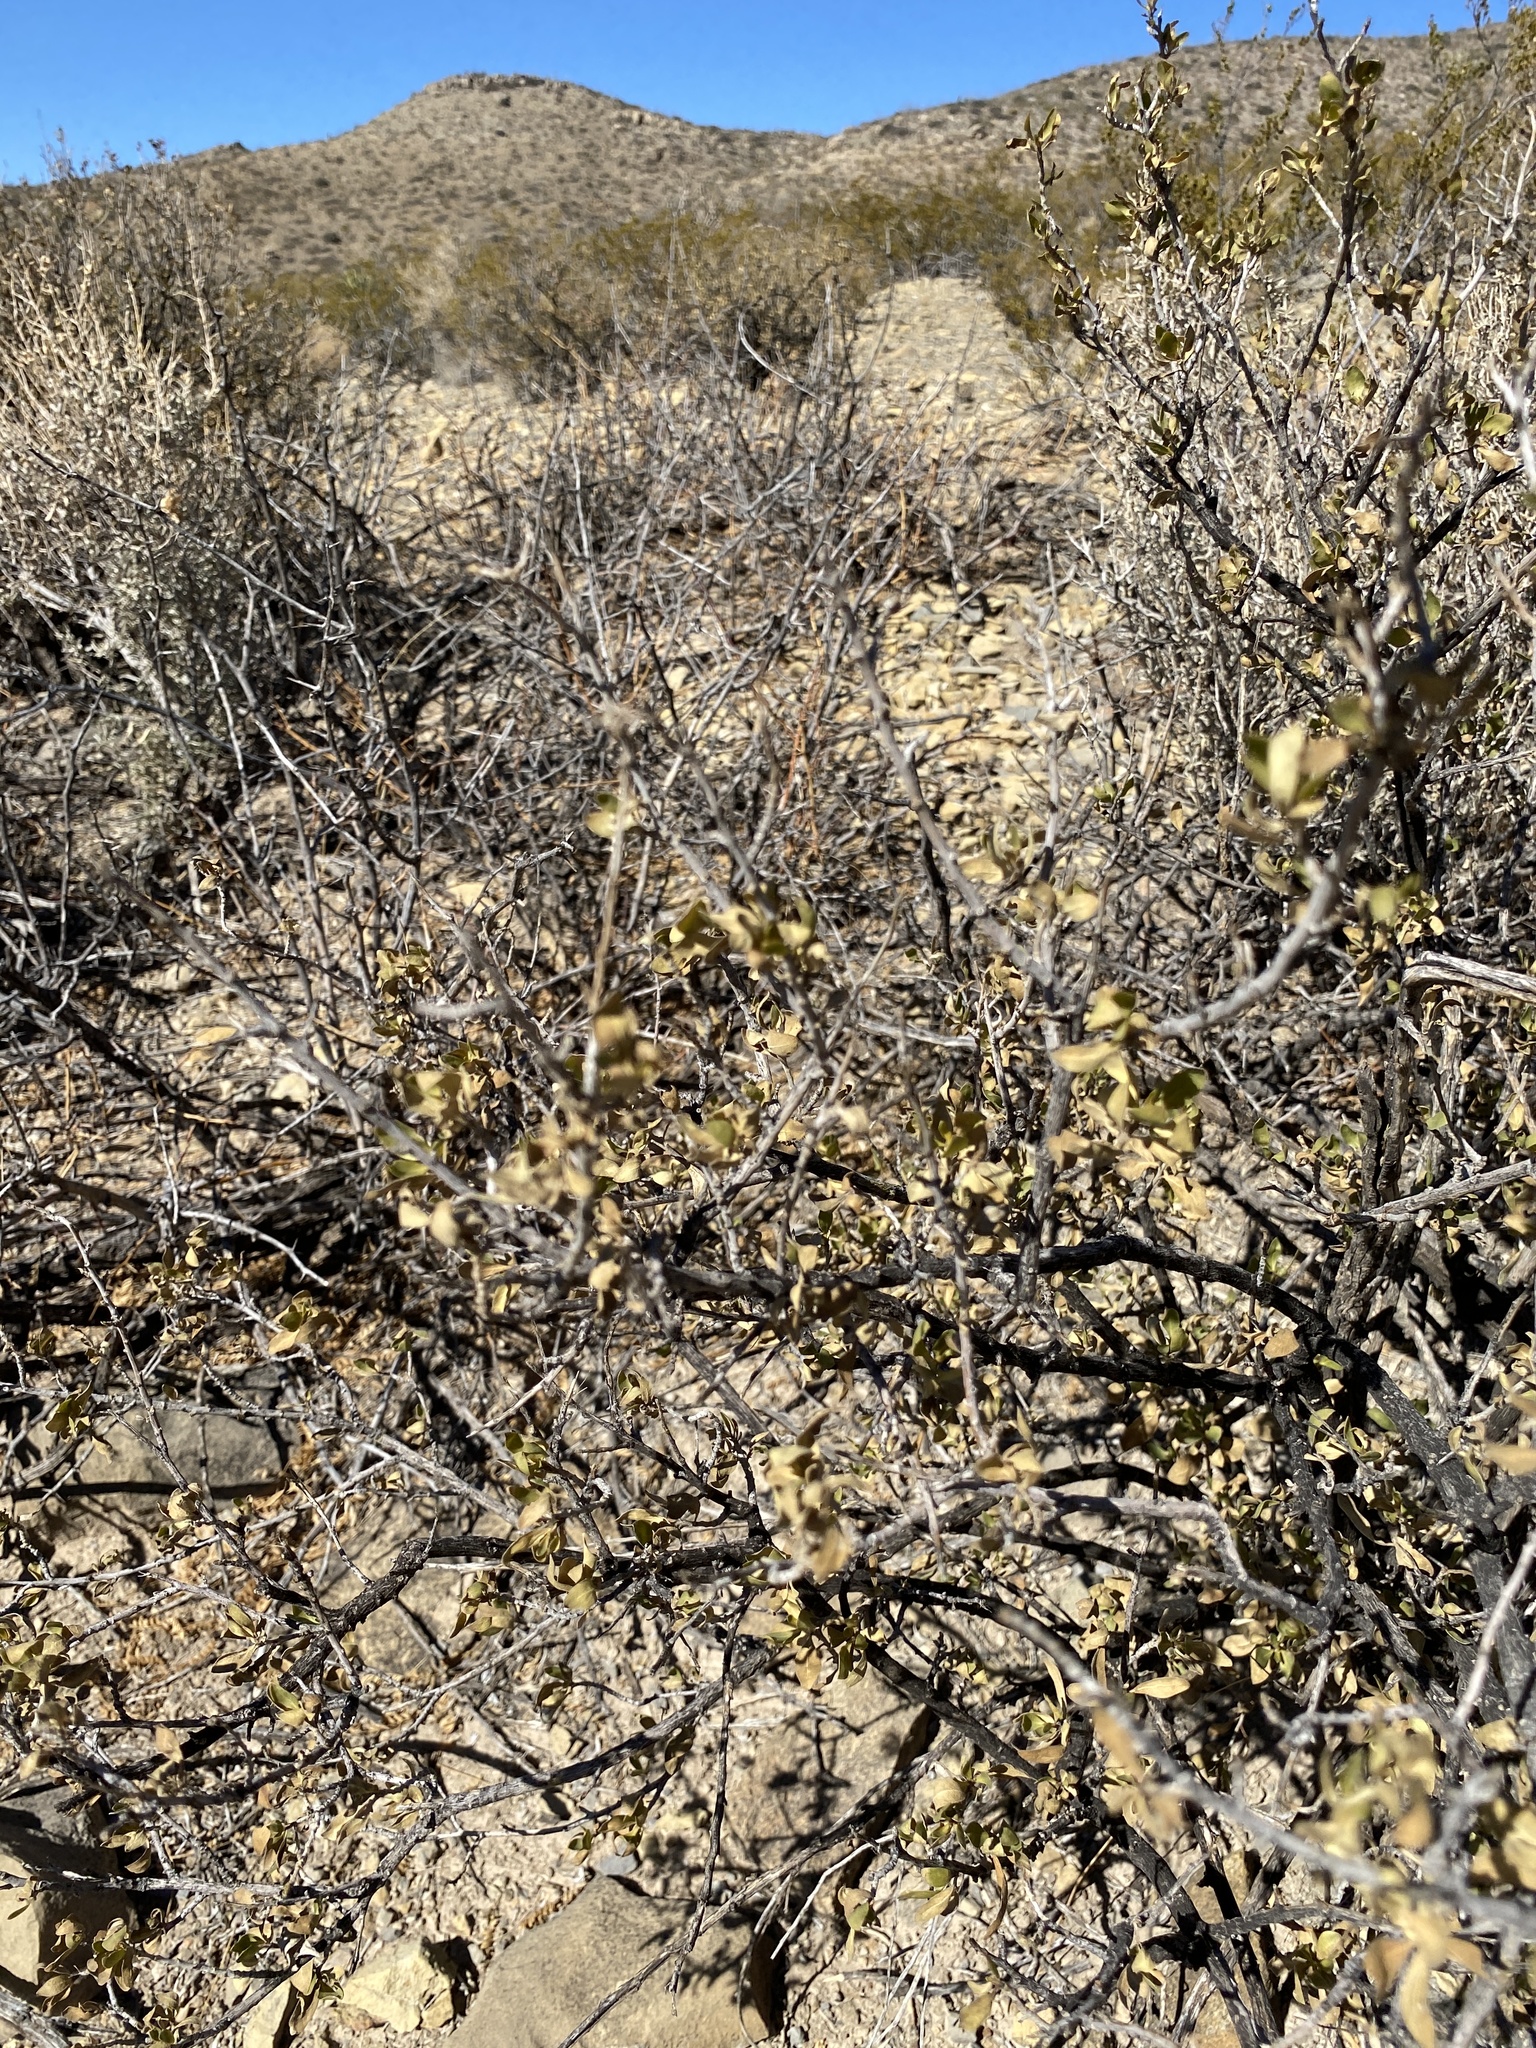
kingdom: Plantae
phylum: Tracheophyta
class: Magnoliopsida
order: Asterales
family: Asteraceae
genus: Flourensia
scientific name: Flourensia cernua
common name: Varnishbush
